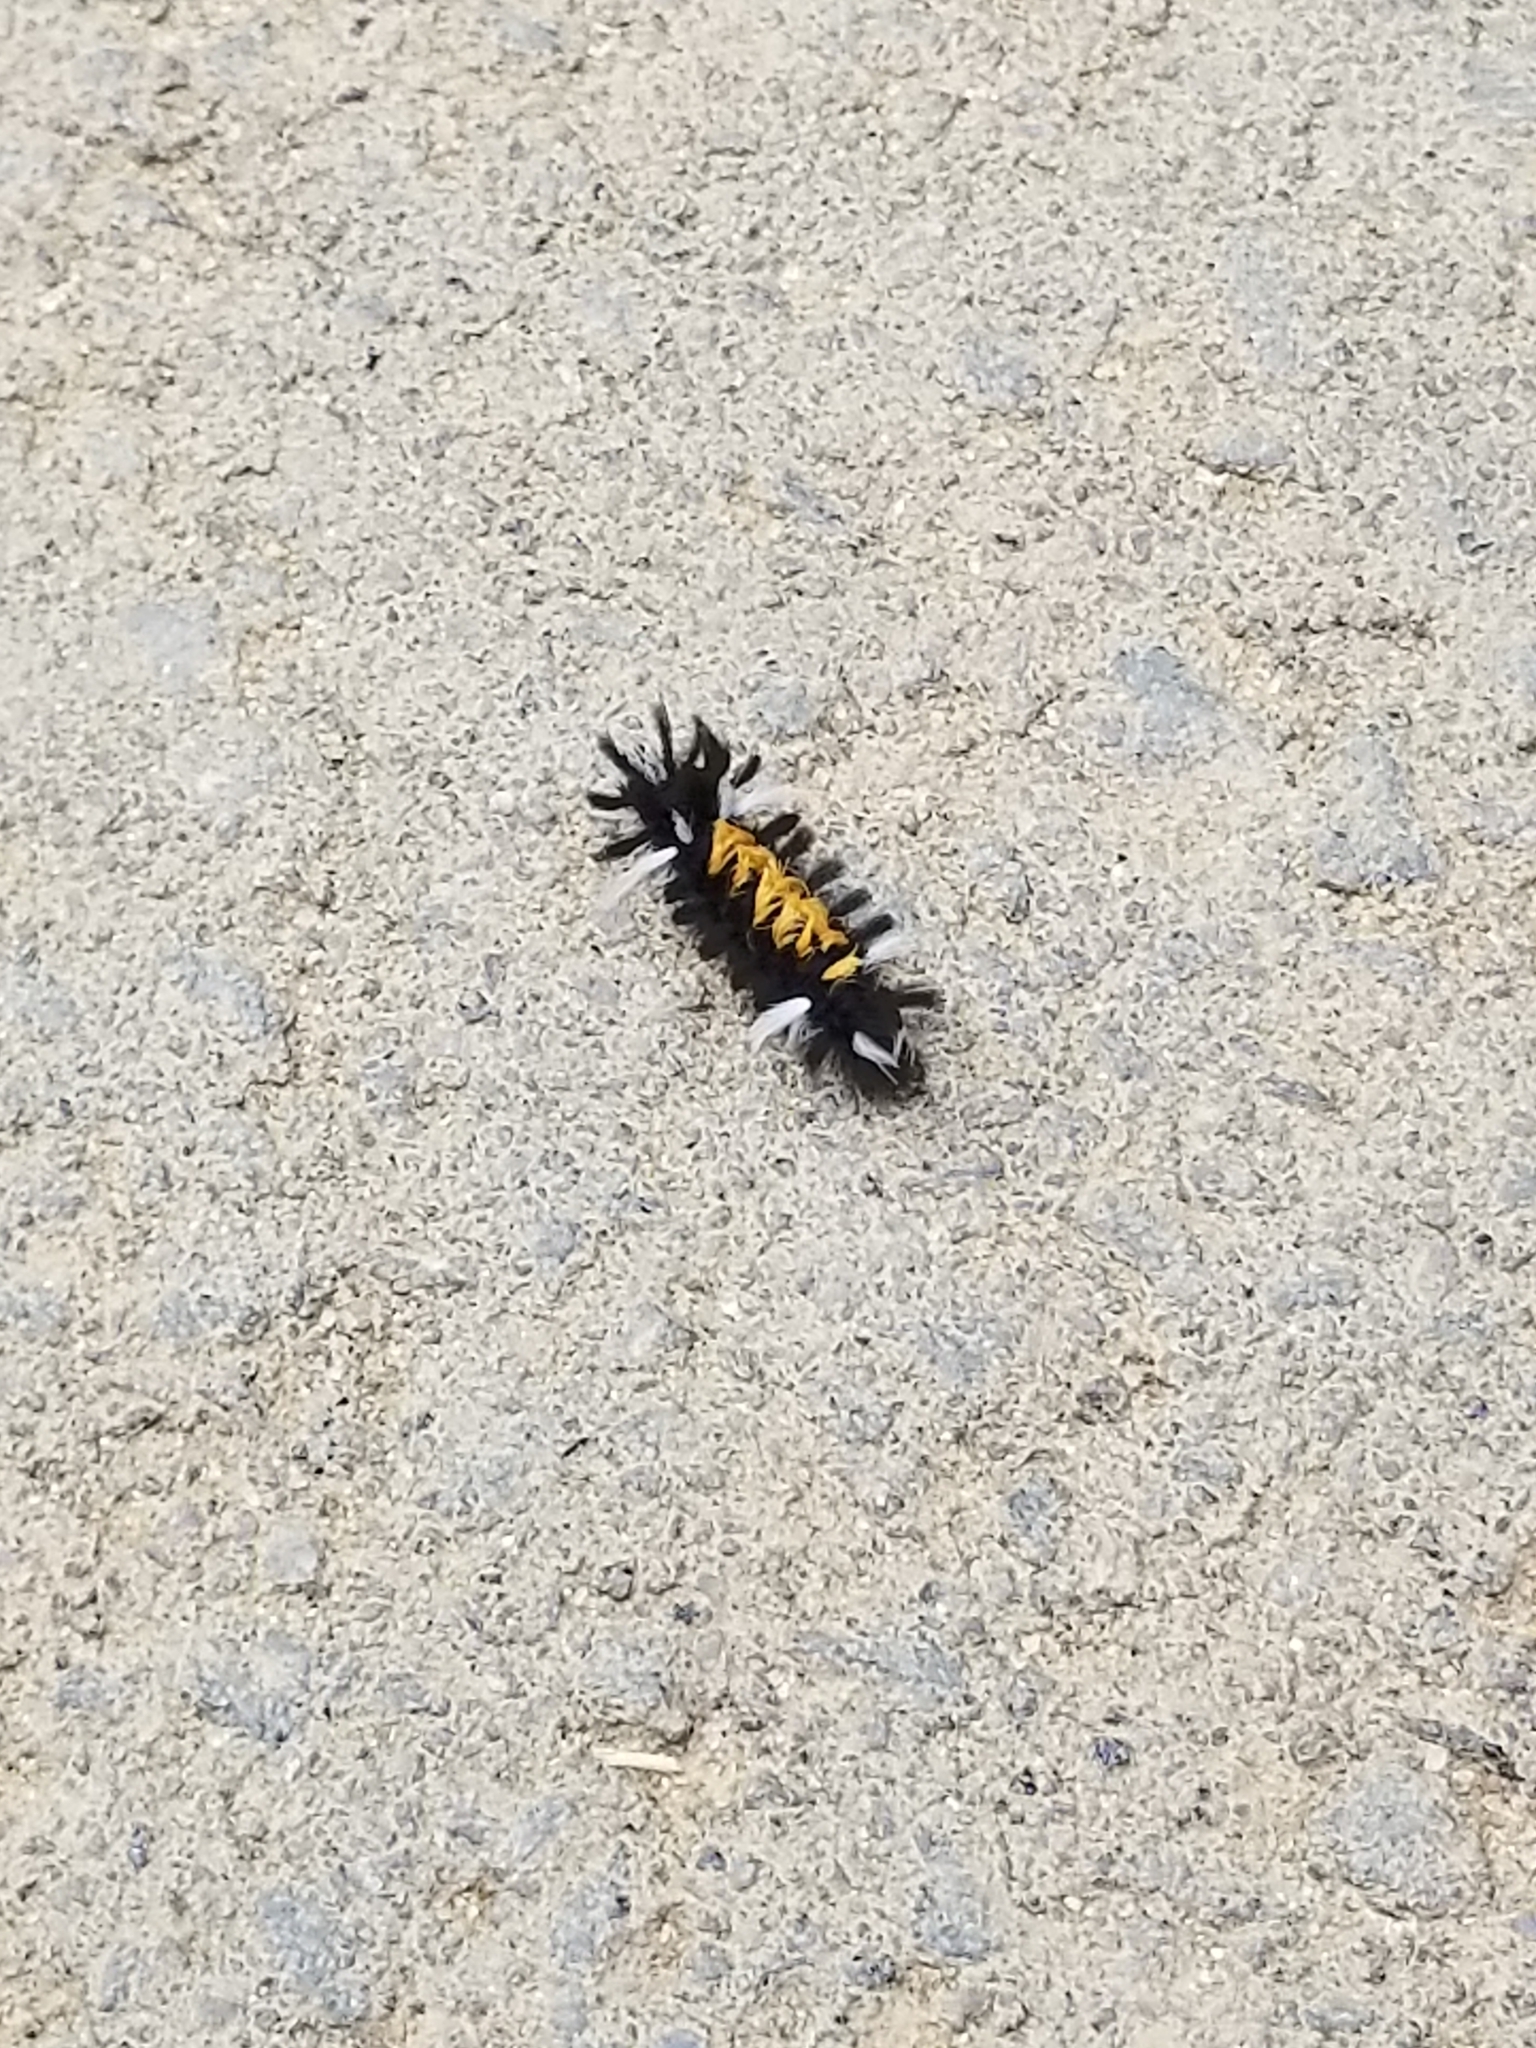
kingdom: Animalia
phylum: Arthropoda
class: Insecta
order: Lepidoptera
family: Erebidae
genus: Euchaetes
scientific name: Euchaetes egle
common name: Milkweed tussock moth
